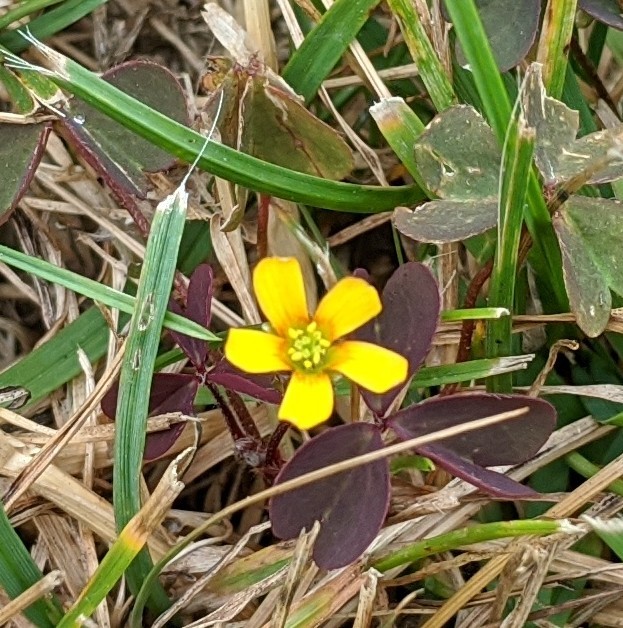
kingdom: Plantae
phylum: Tracheophyta
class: Magnoliopsida
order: Oxalidales
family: Oxalidaceae
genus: Oxalis
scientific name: Oxalis corniculata
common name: Procumbent yellow-sorrel
